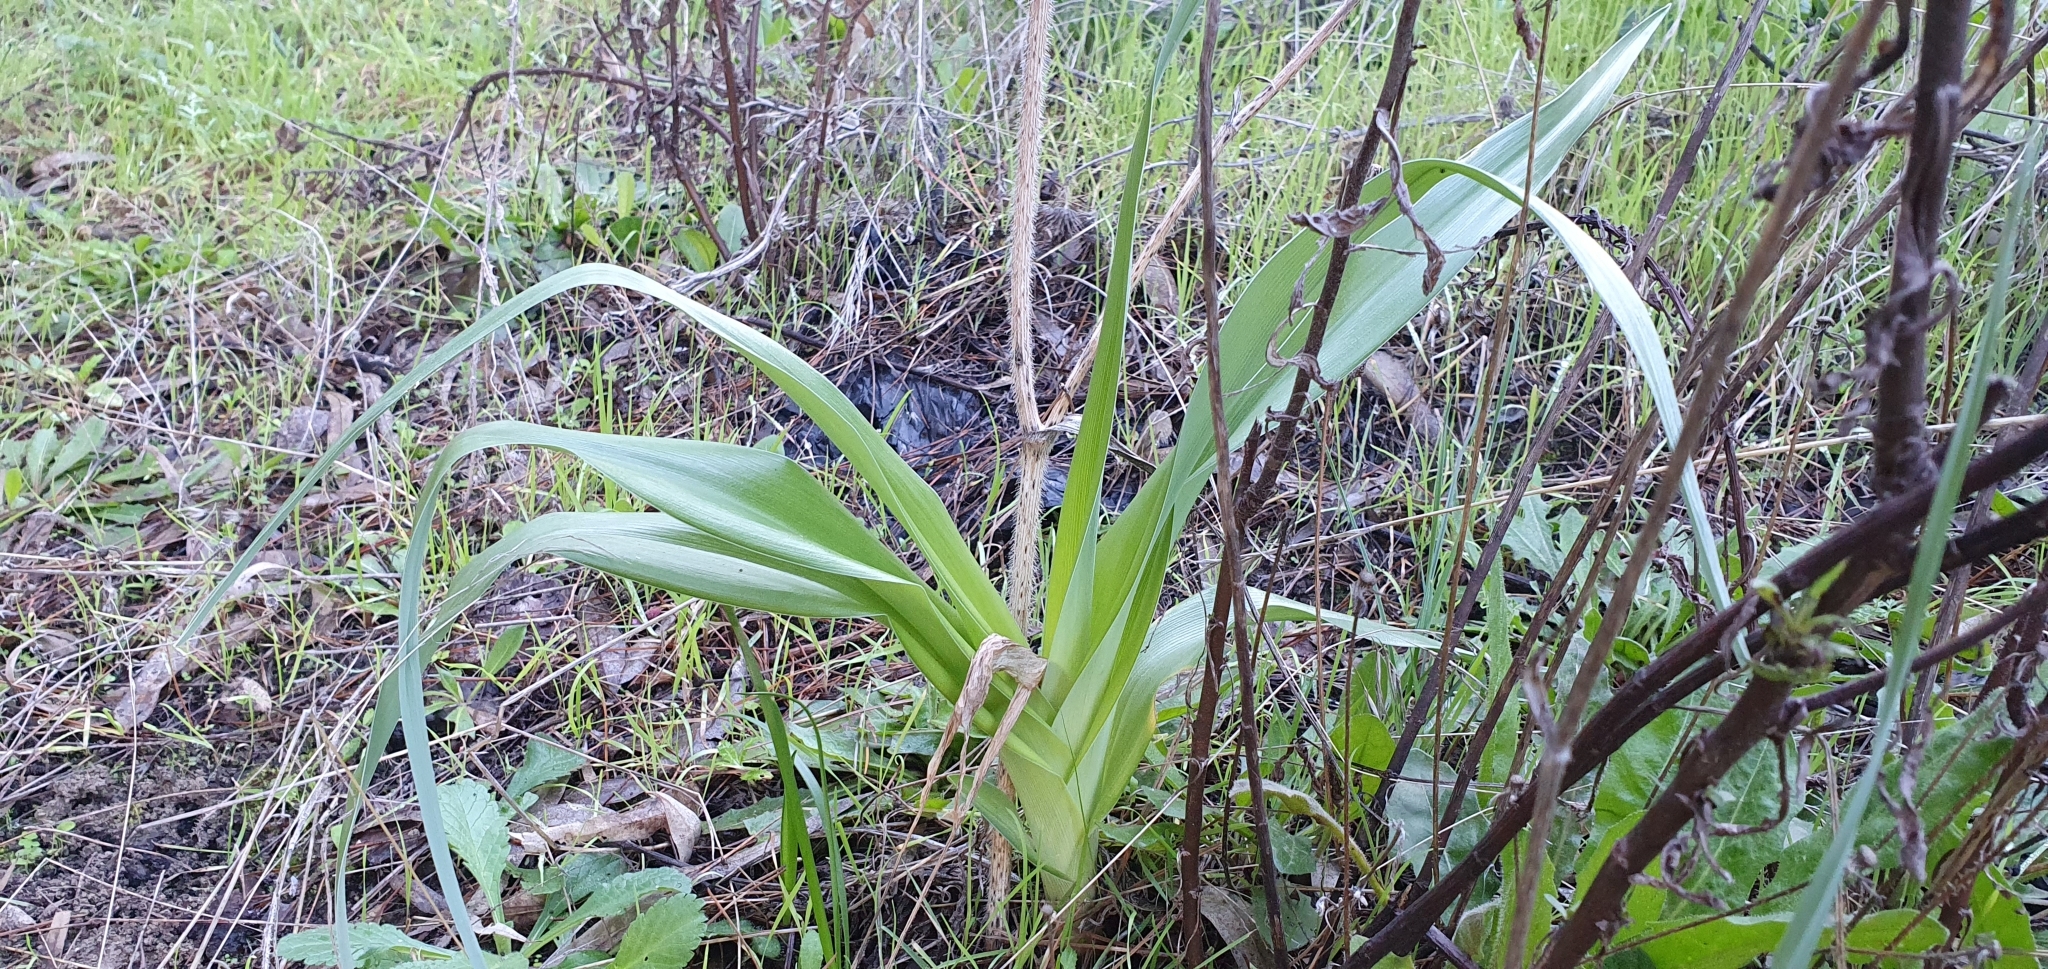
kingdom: Plantae
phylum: Tracheophyta
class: Liliopsida
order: Asparagales
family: Iridaceae
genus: Iris
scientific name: Iris planifolia
